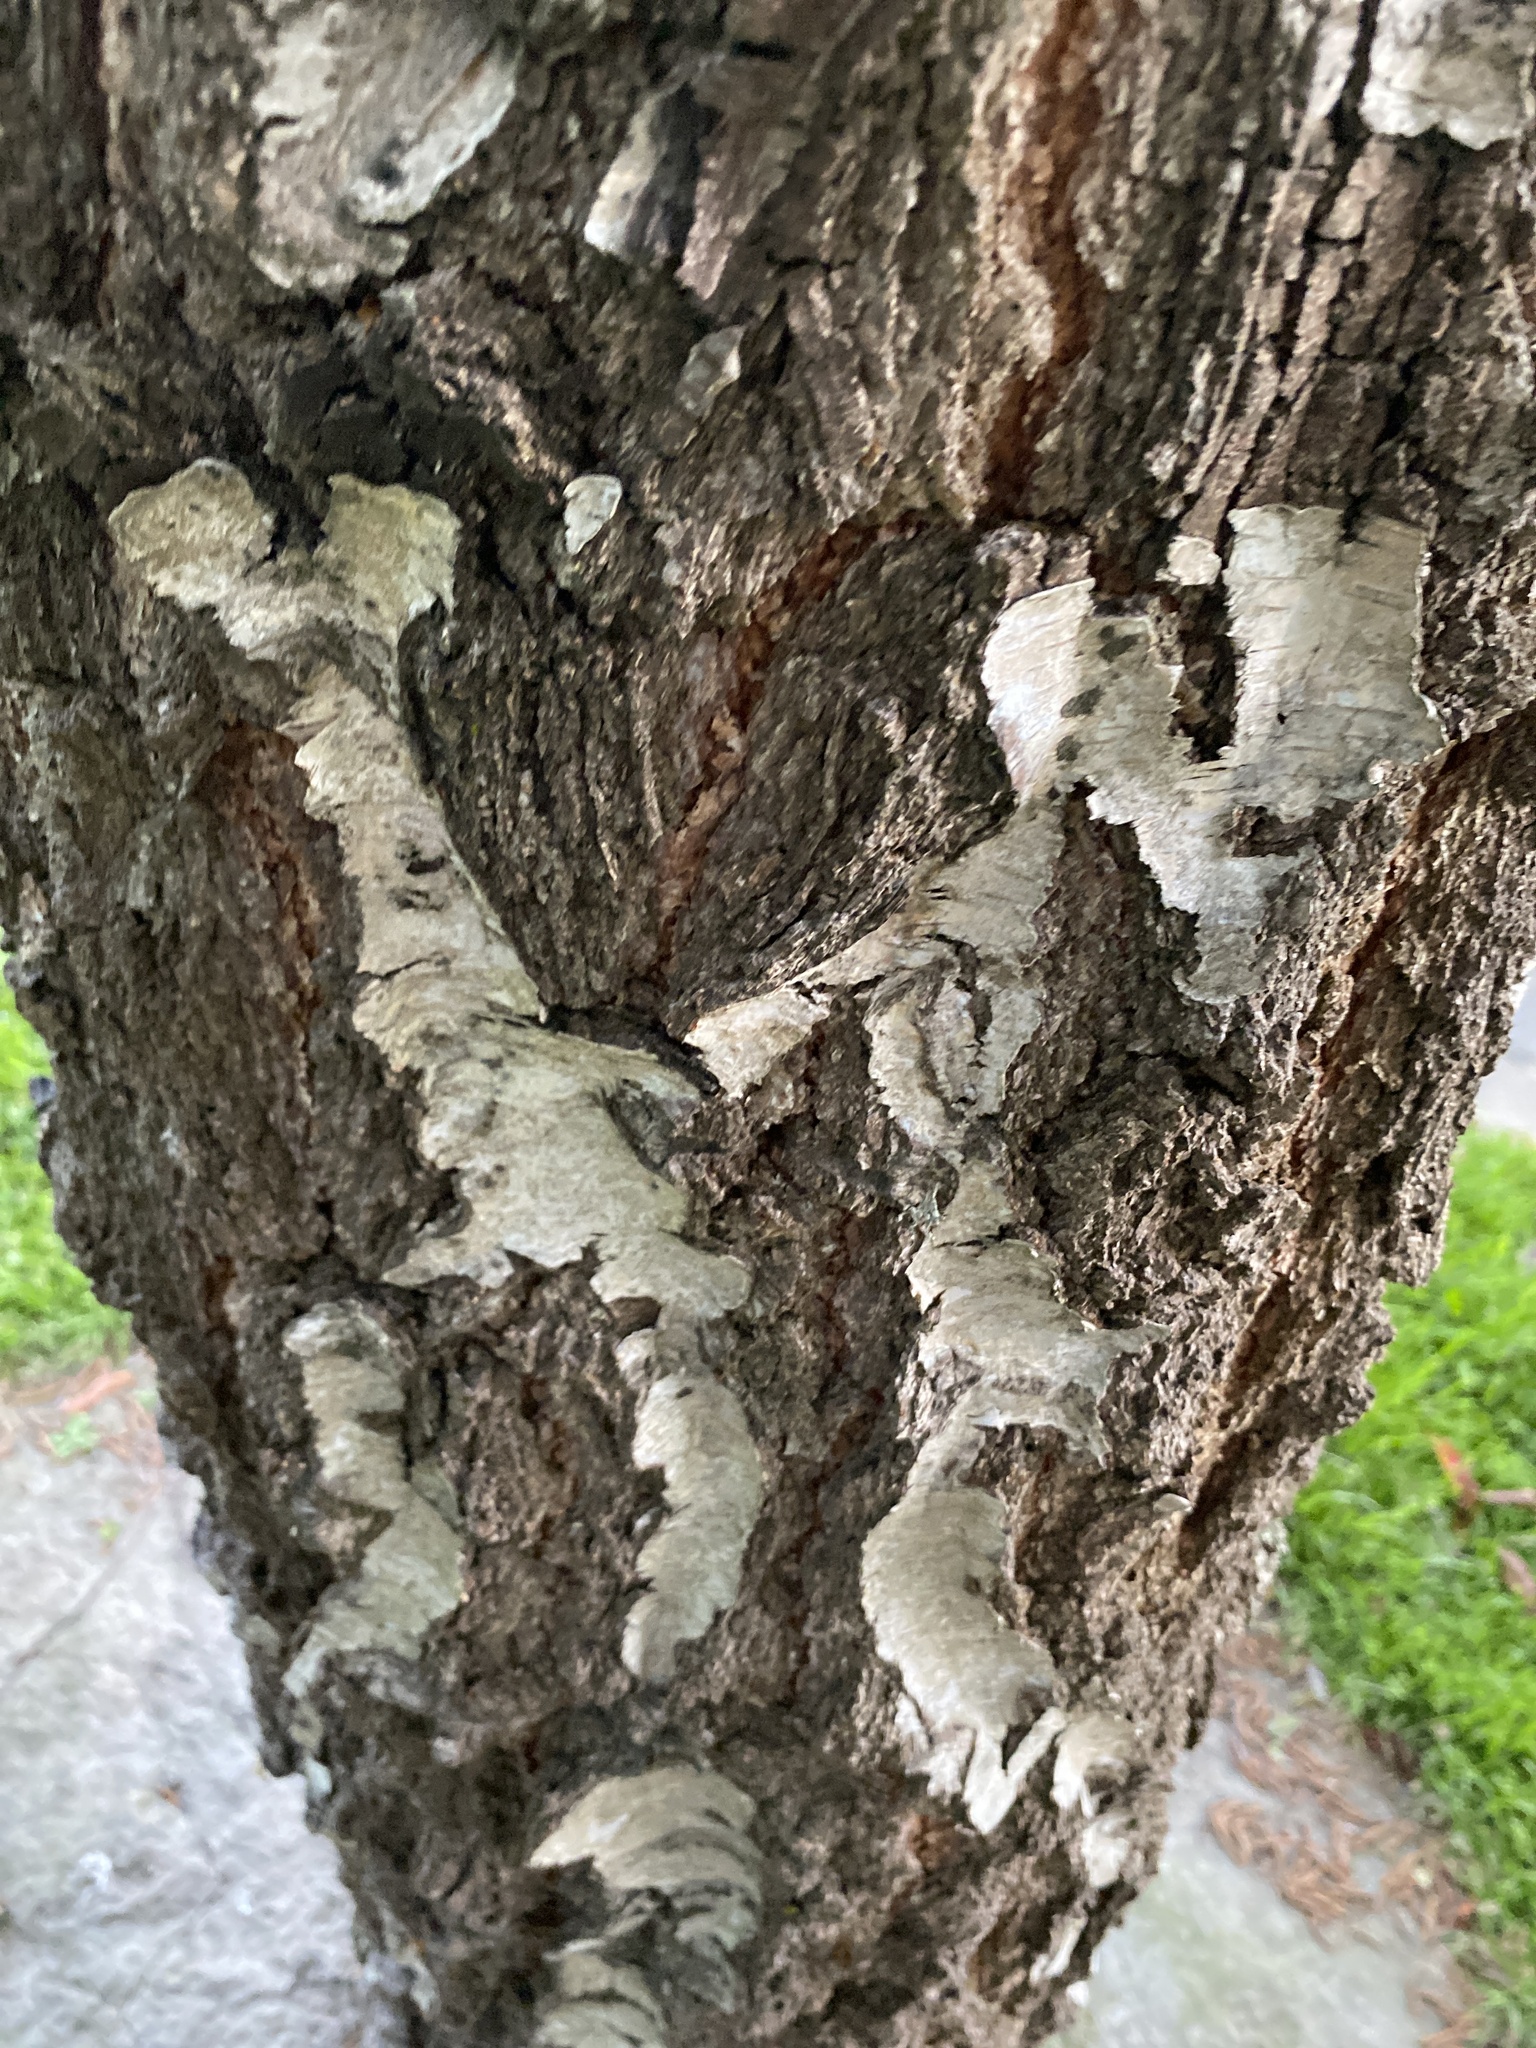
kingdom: Plantae
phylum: Tracheophyta
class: Magnoliopsida
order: Fagales
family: Betulaceae
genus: Betula
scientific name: Betula pendula
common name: Silver birch
